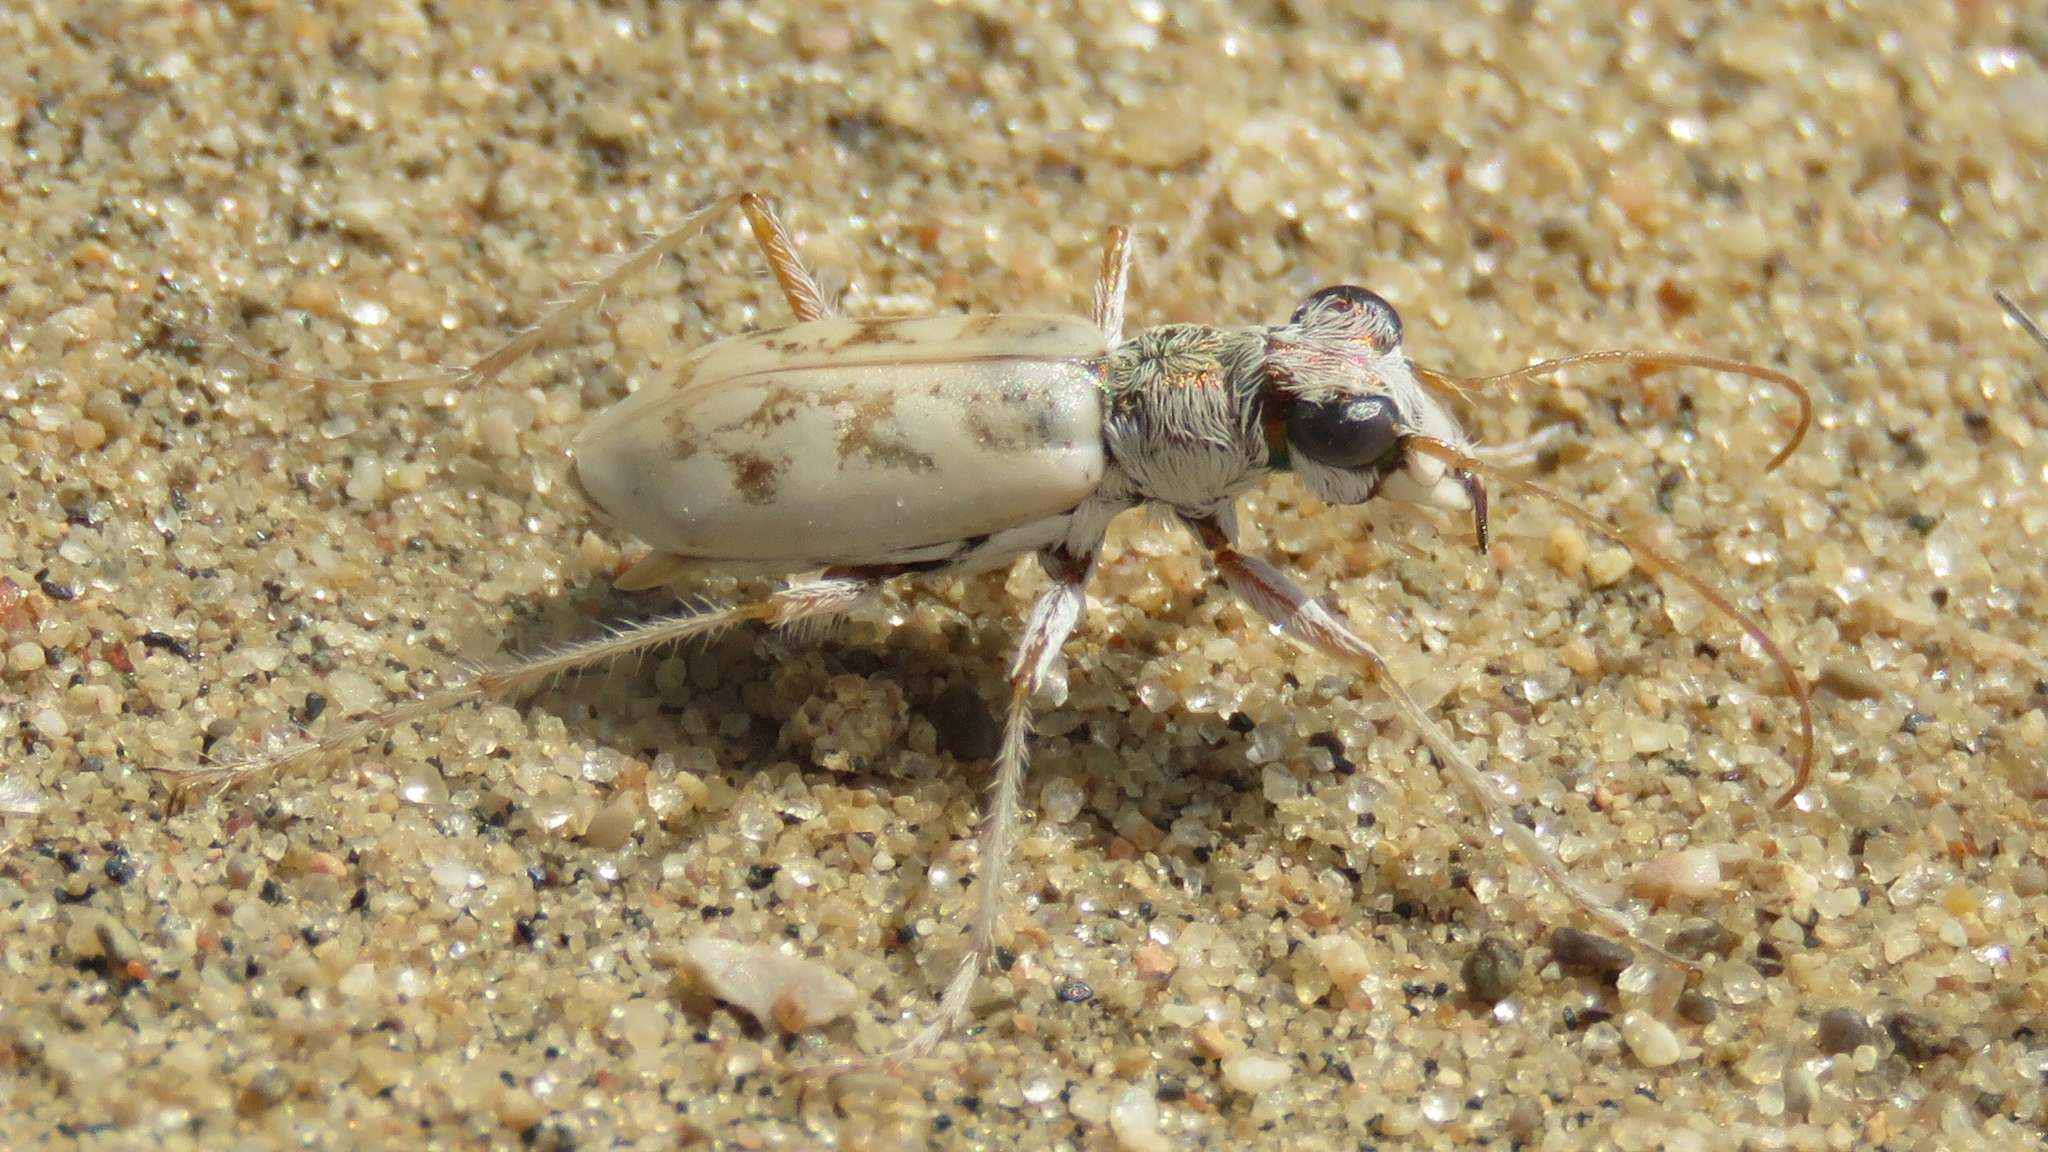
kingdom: Animalia
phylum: Arthropoda
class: Insecta
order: Coleoptera
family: Carabidae
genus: Ellipsoptera
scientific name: Ellipsoptera lepida
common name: Ghost tiger beetle
